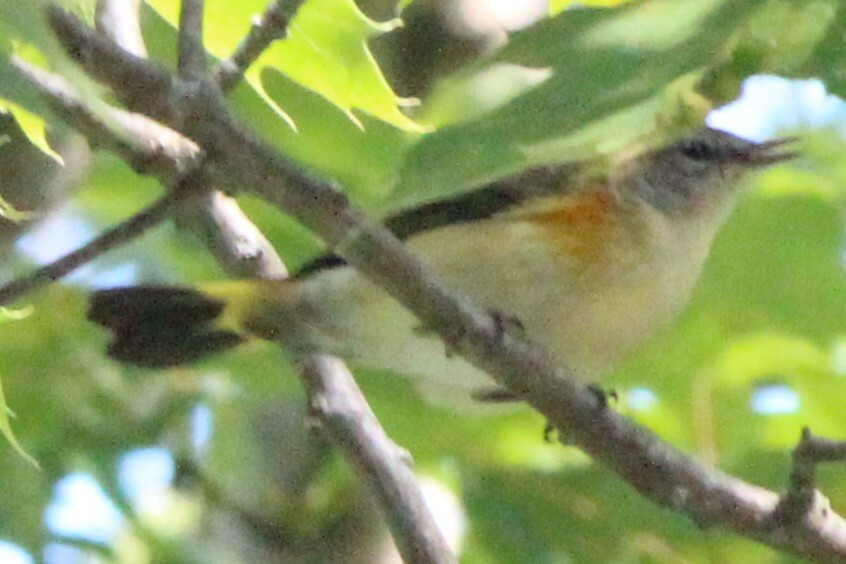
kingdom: Animalia
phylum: Chordata
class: Aves
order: Passeriformes
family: Parulidae
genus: Setophaga
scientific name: Setophaga ruticilla
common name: American redstart
